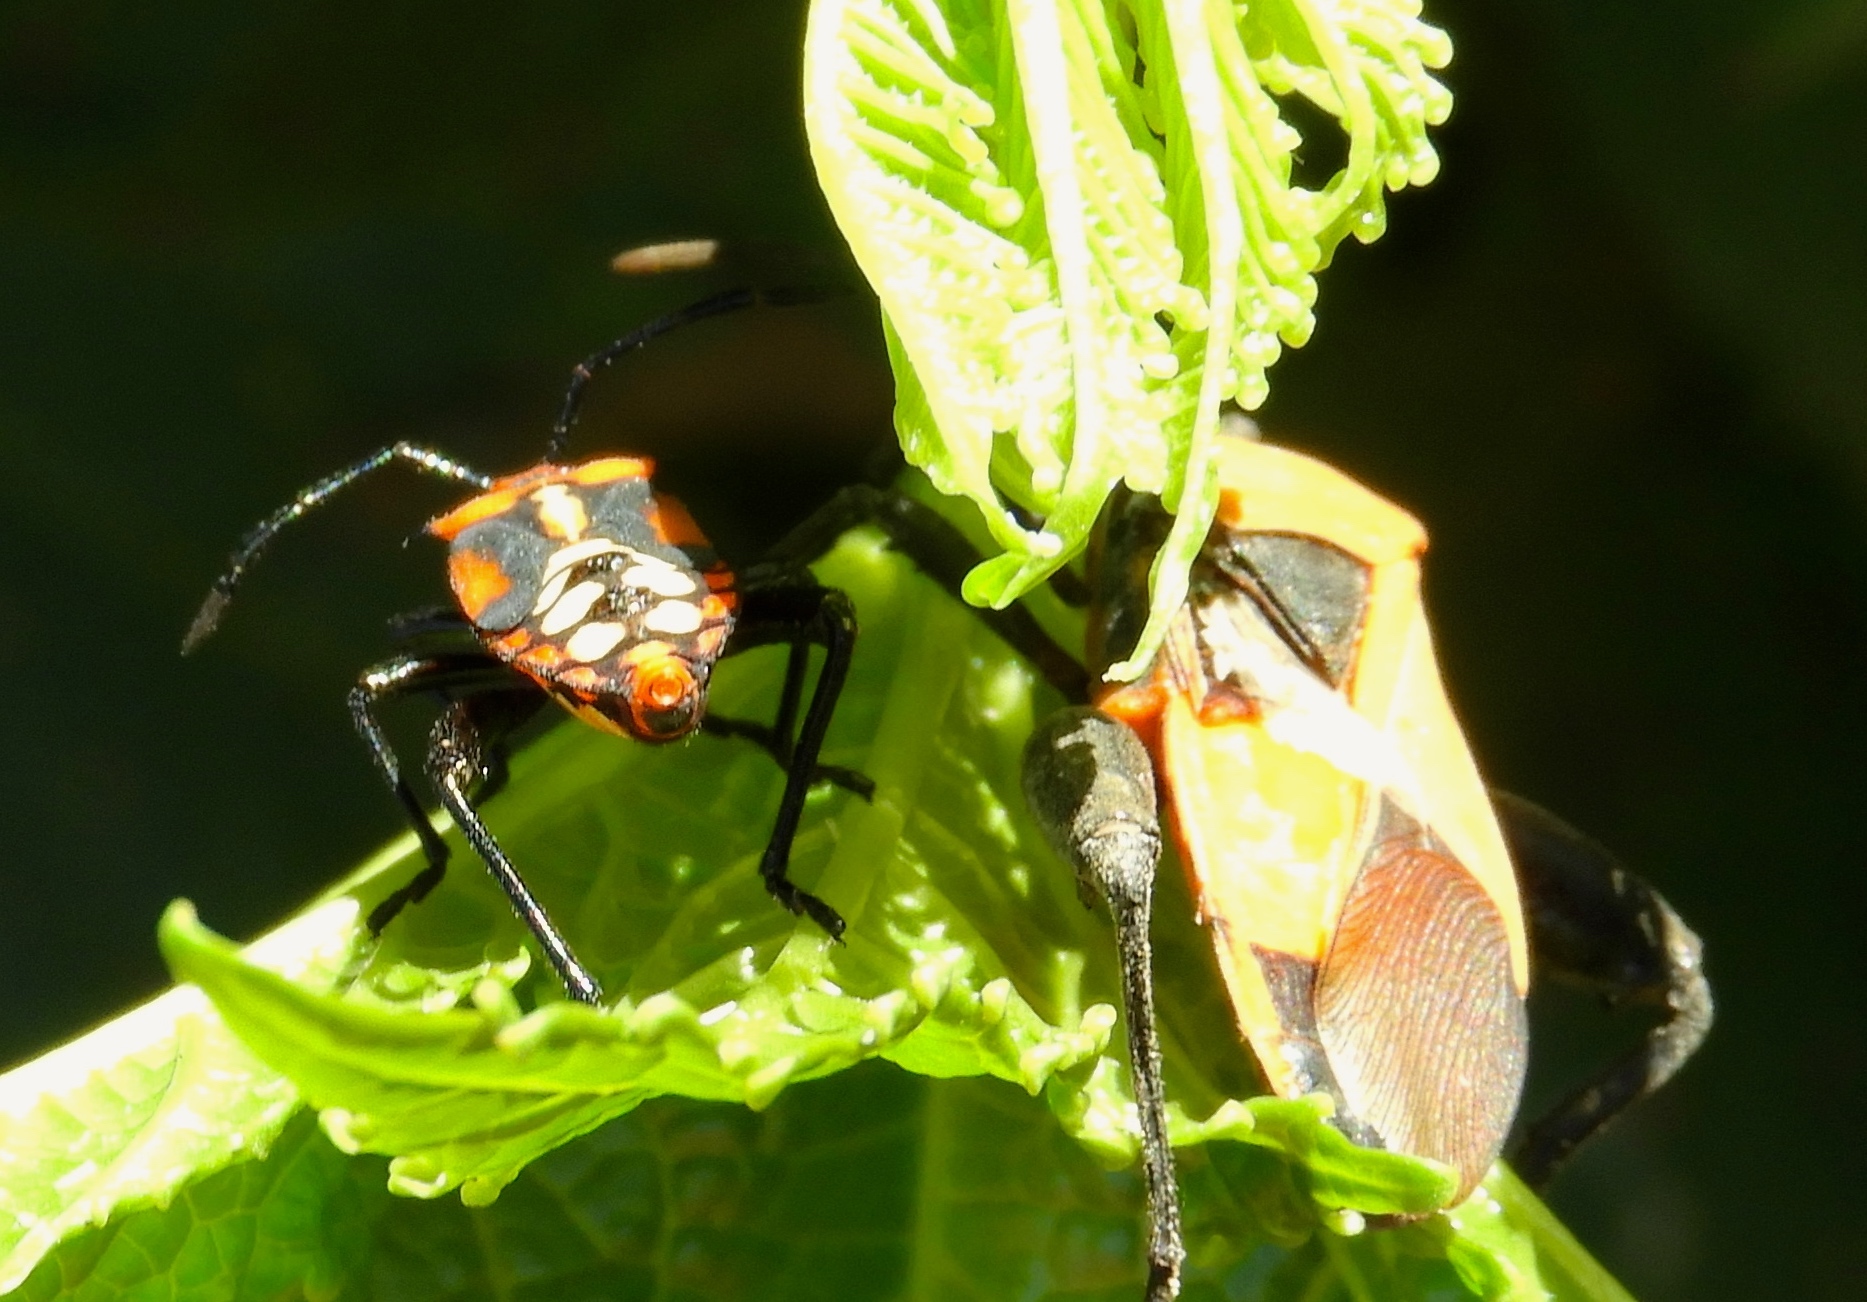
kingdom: Animalia
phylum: Arthropoda
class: Insecta
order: Hemiptera
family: Coreidae
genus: Sagotylus
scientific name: Sagotylus confluens
